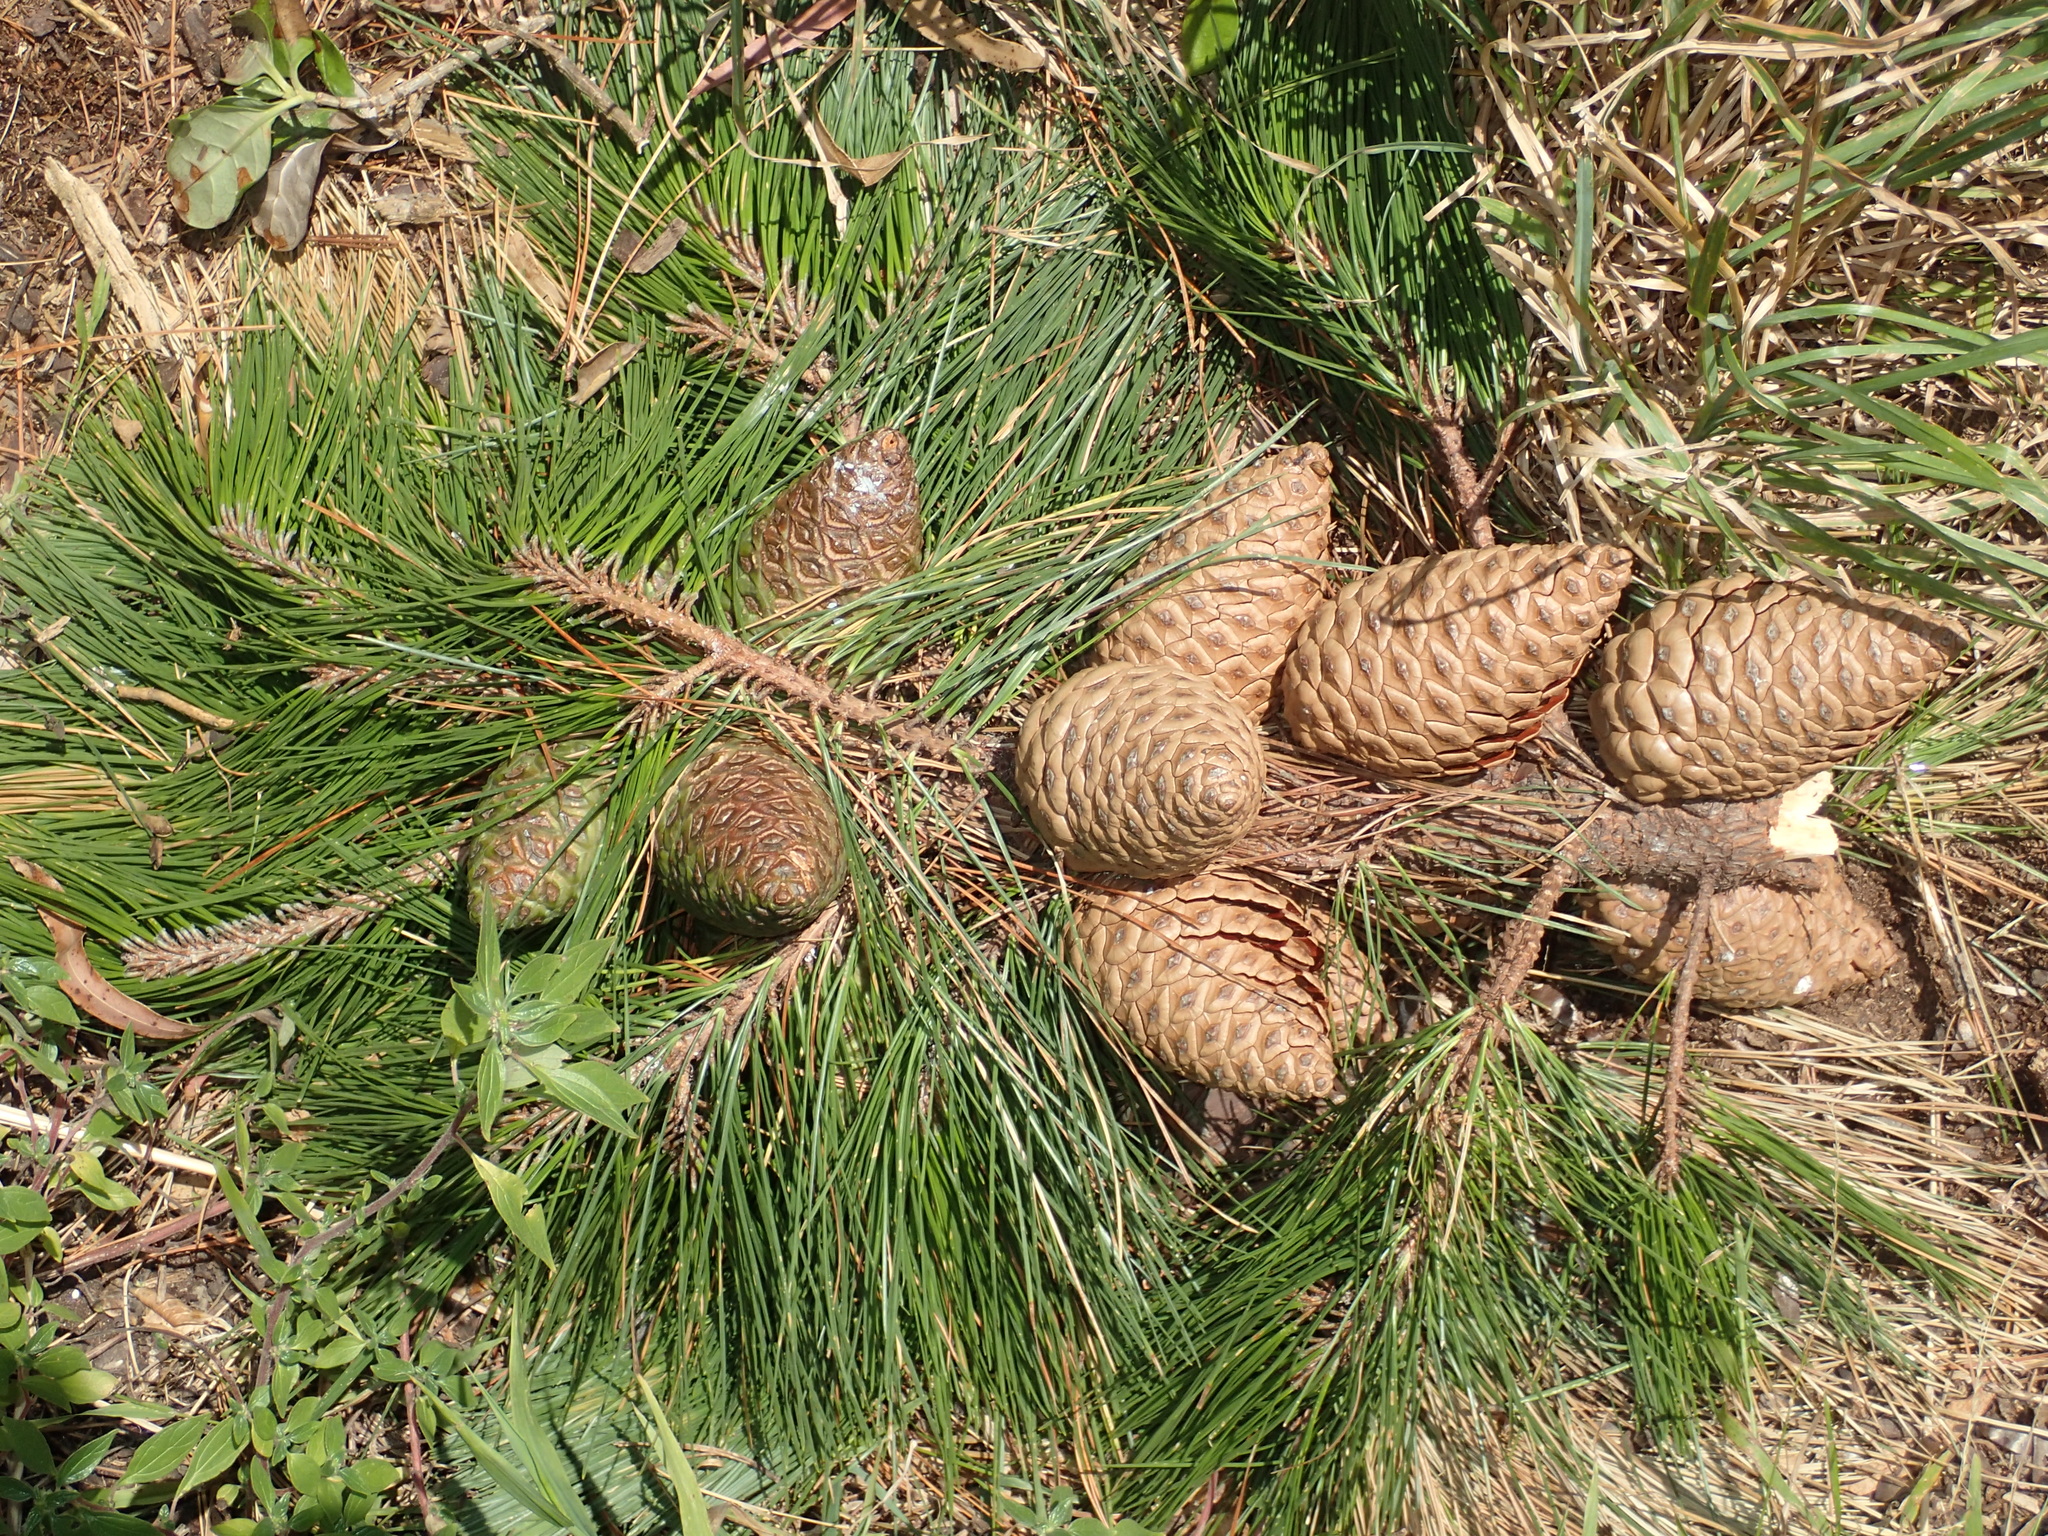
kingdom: Plantae
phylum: Tracheophyta
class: Pinopsida
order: Pinales
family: Pinaceae
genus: Pinus
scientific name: Pinus radiata
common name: Monterey pine
